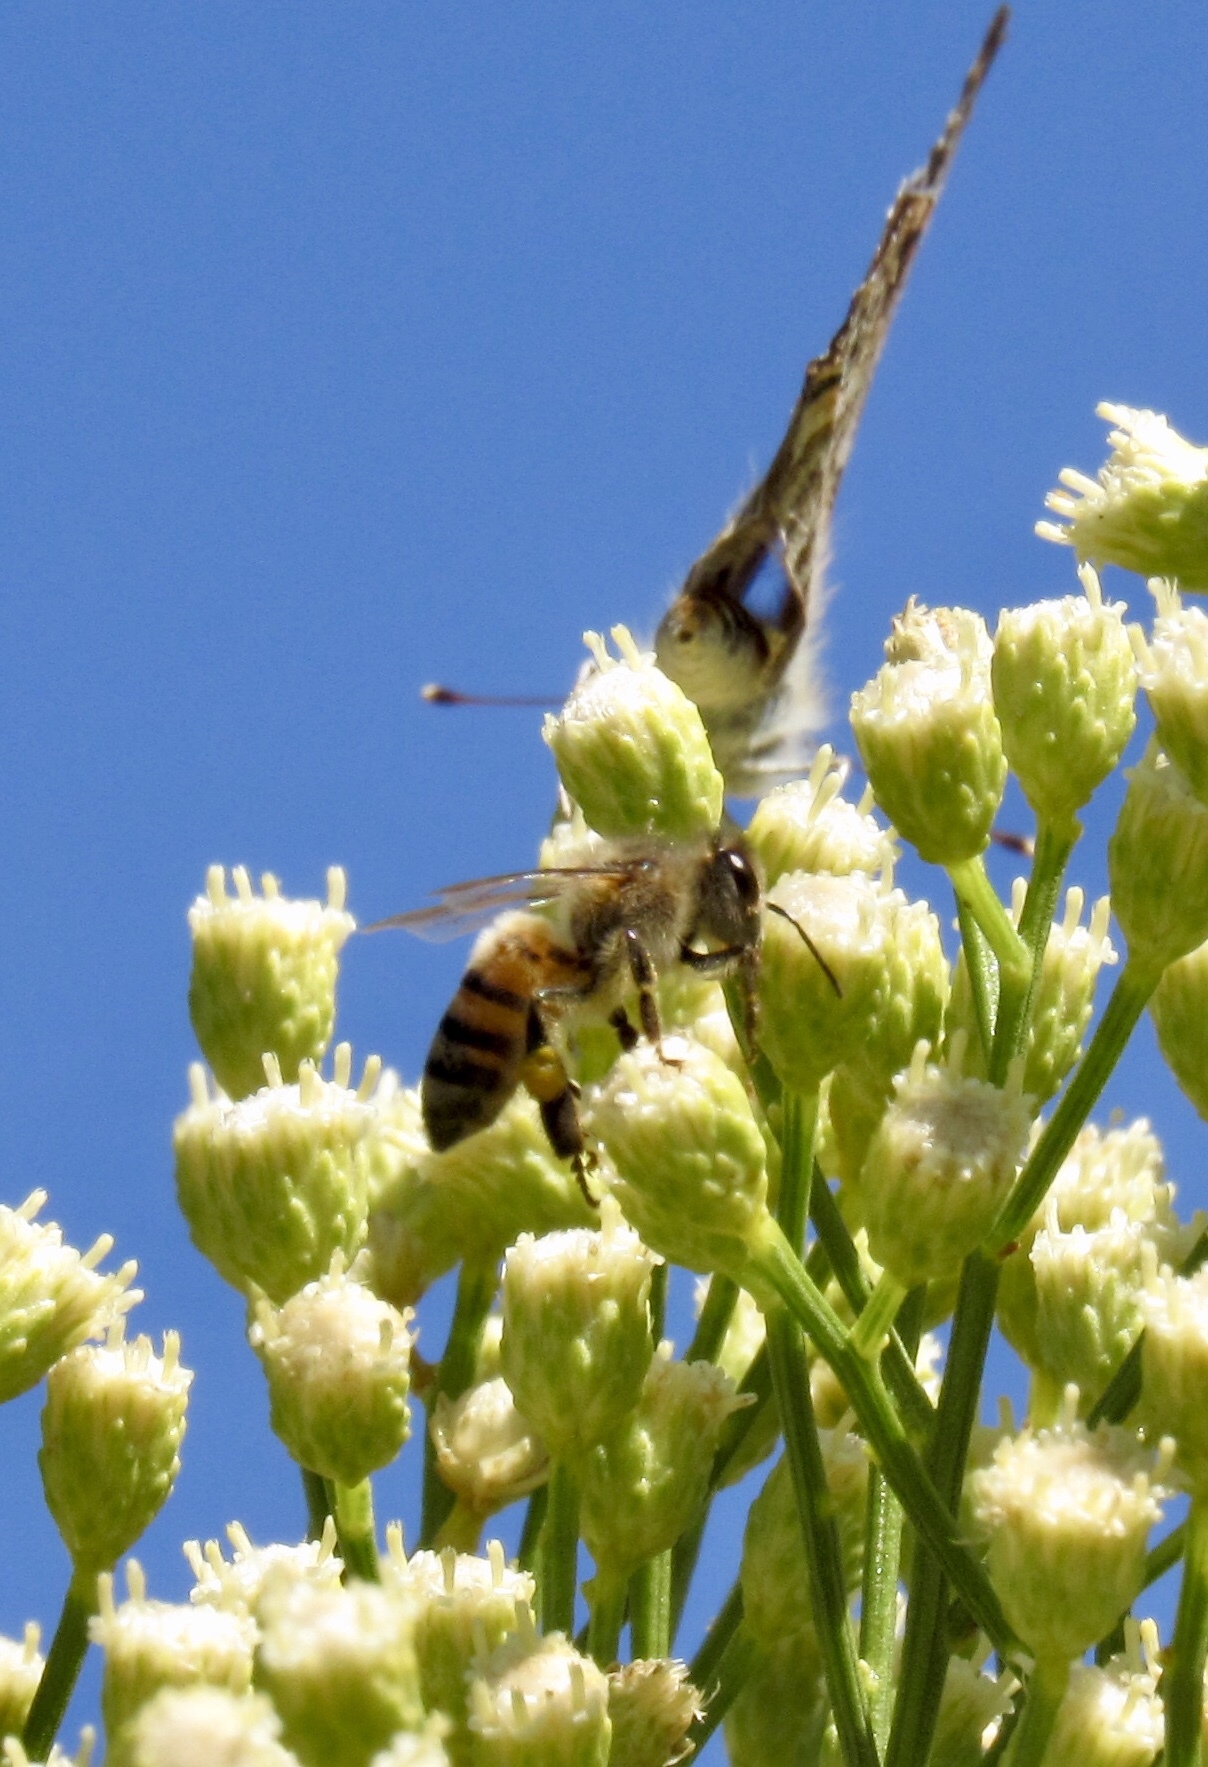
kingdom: Animalia
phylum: Arthropoda
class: Insecta
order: Hymenoptera
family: Apidae
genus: Apis
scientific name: Apis mellifera
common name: Honey bee
